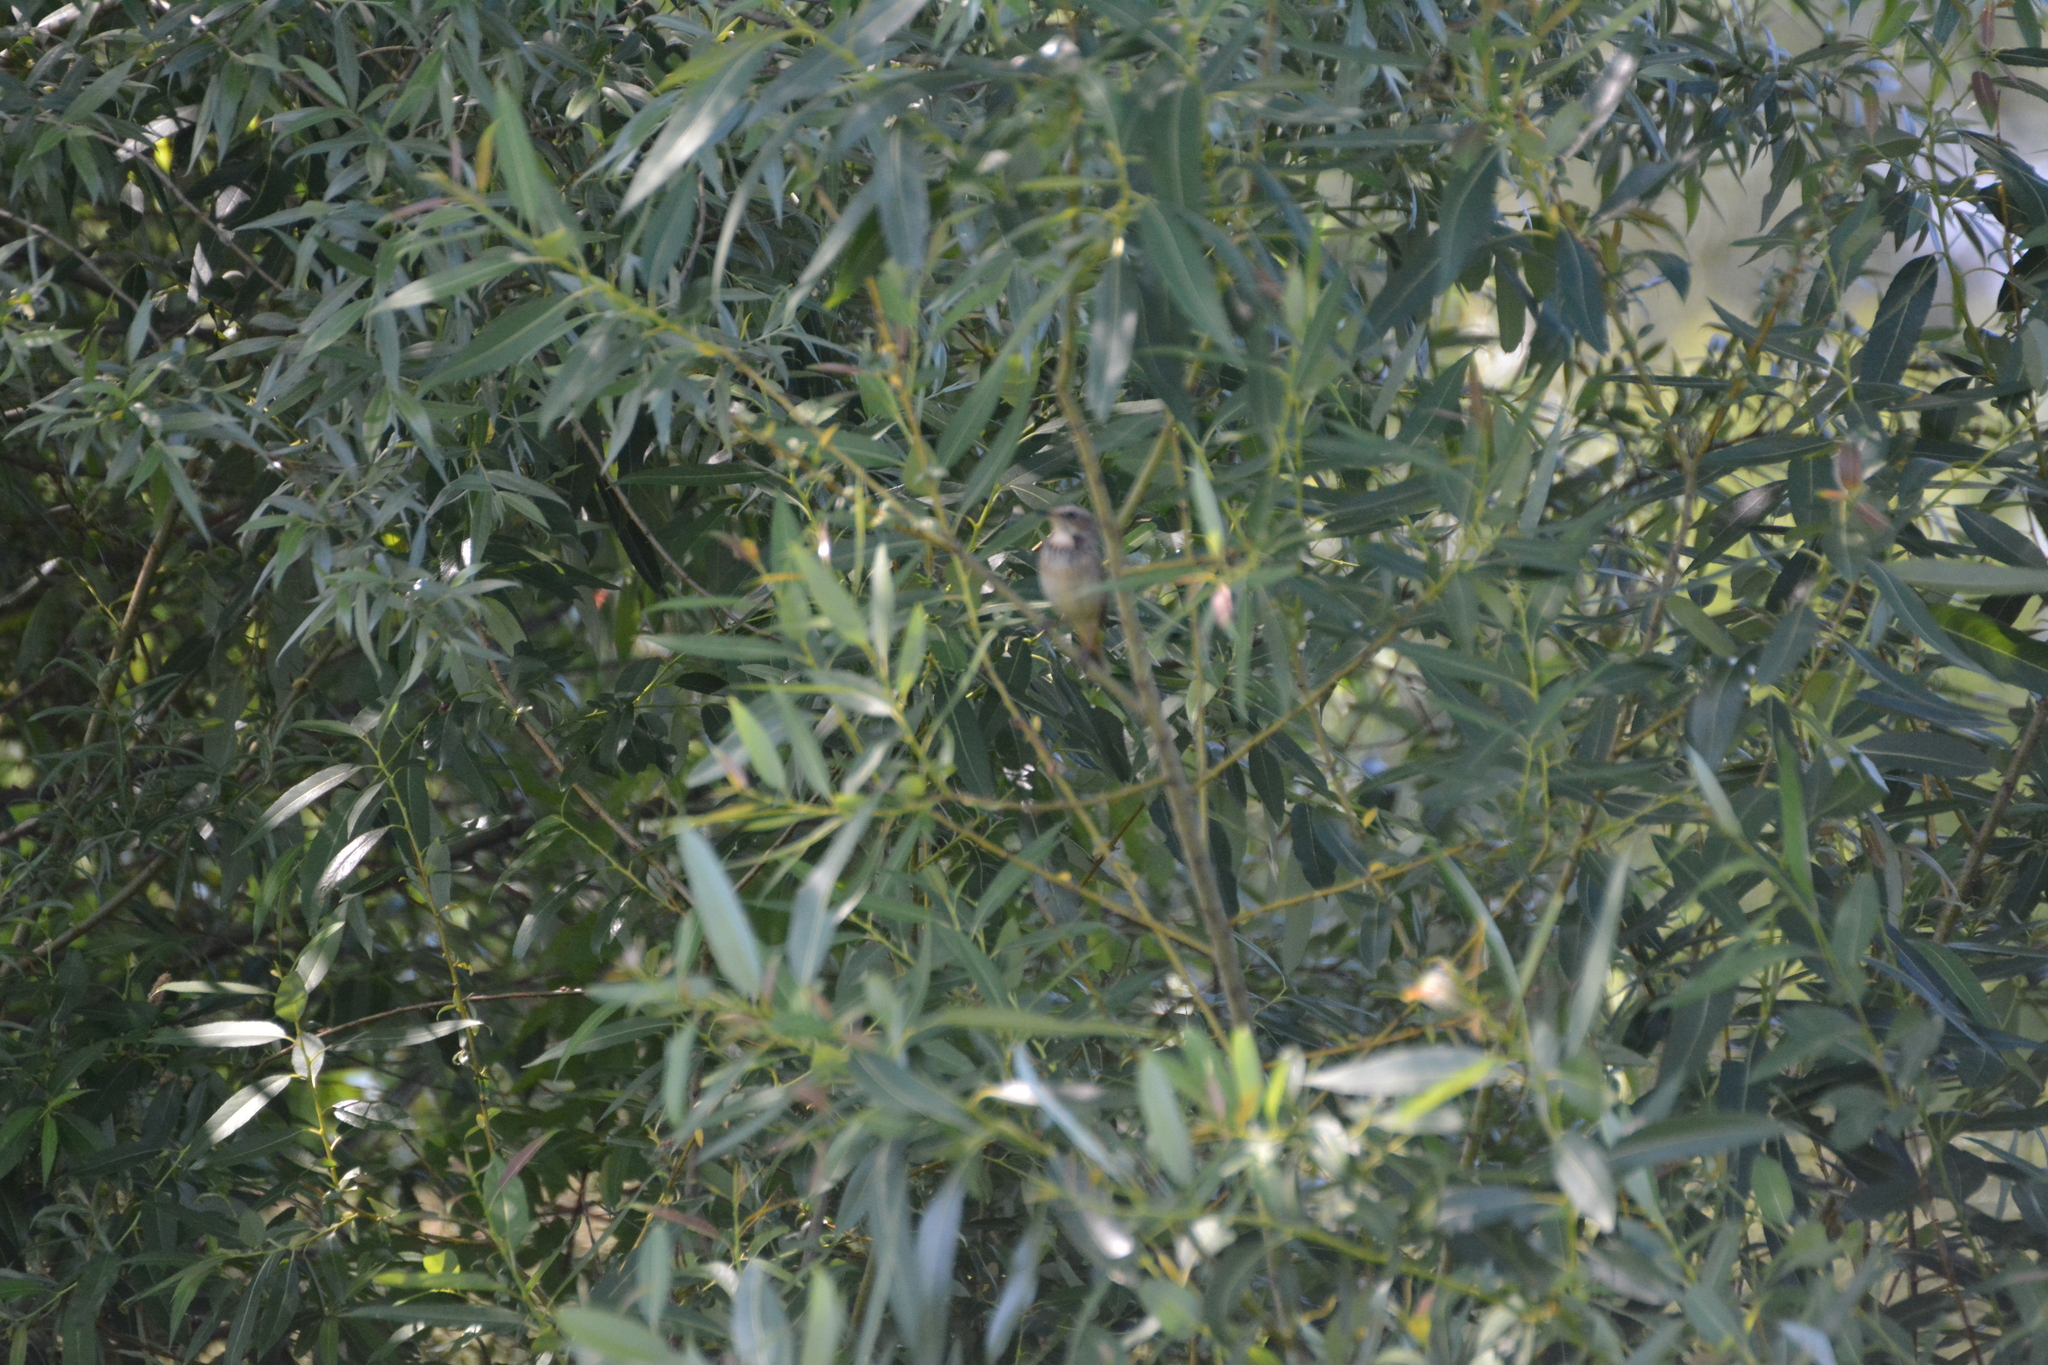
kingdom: Plantae
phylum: Tracheophyta
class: Magnoliopsida
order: Rosales
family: Elaeagnaceae
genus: Hippophae
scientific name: Hippophae rhamnoides
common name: Sea-buckthorn
